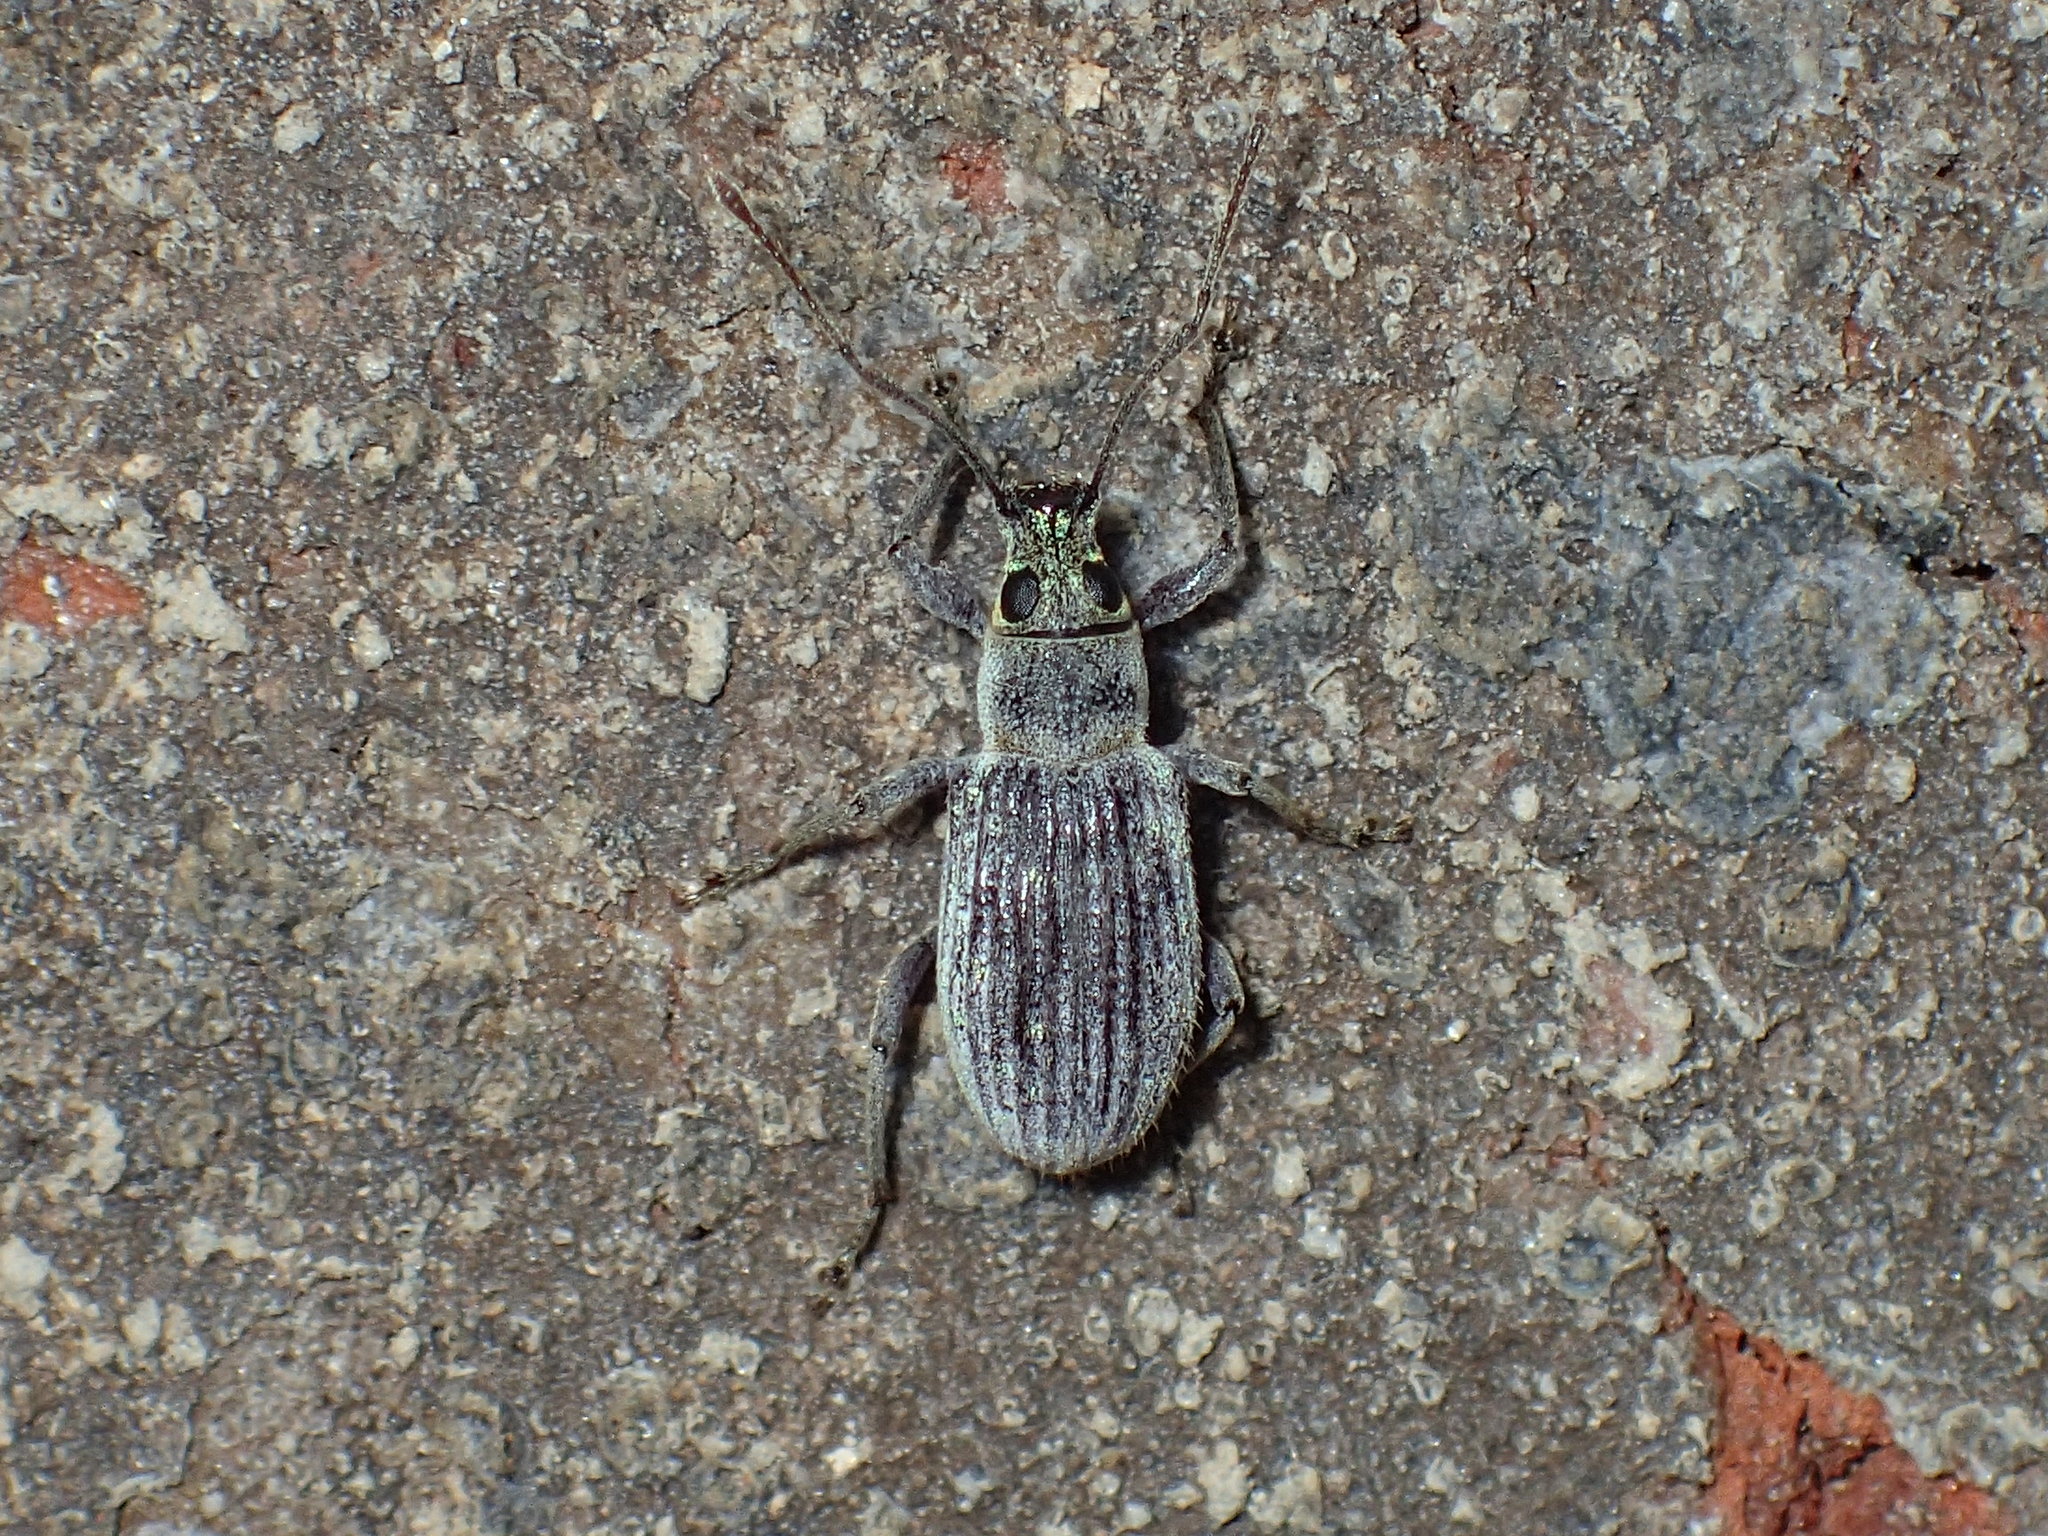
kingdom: Animalia
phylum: Arthropoda
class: Insecta
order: Coleoptera
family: Curculionidae
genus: Cyrtepistomus
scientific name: Cyrtepistomus castaneus
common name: Weevil
